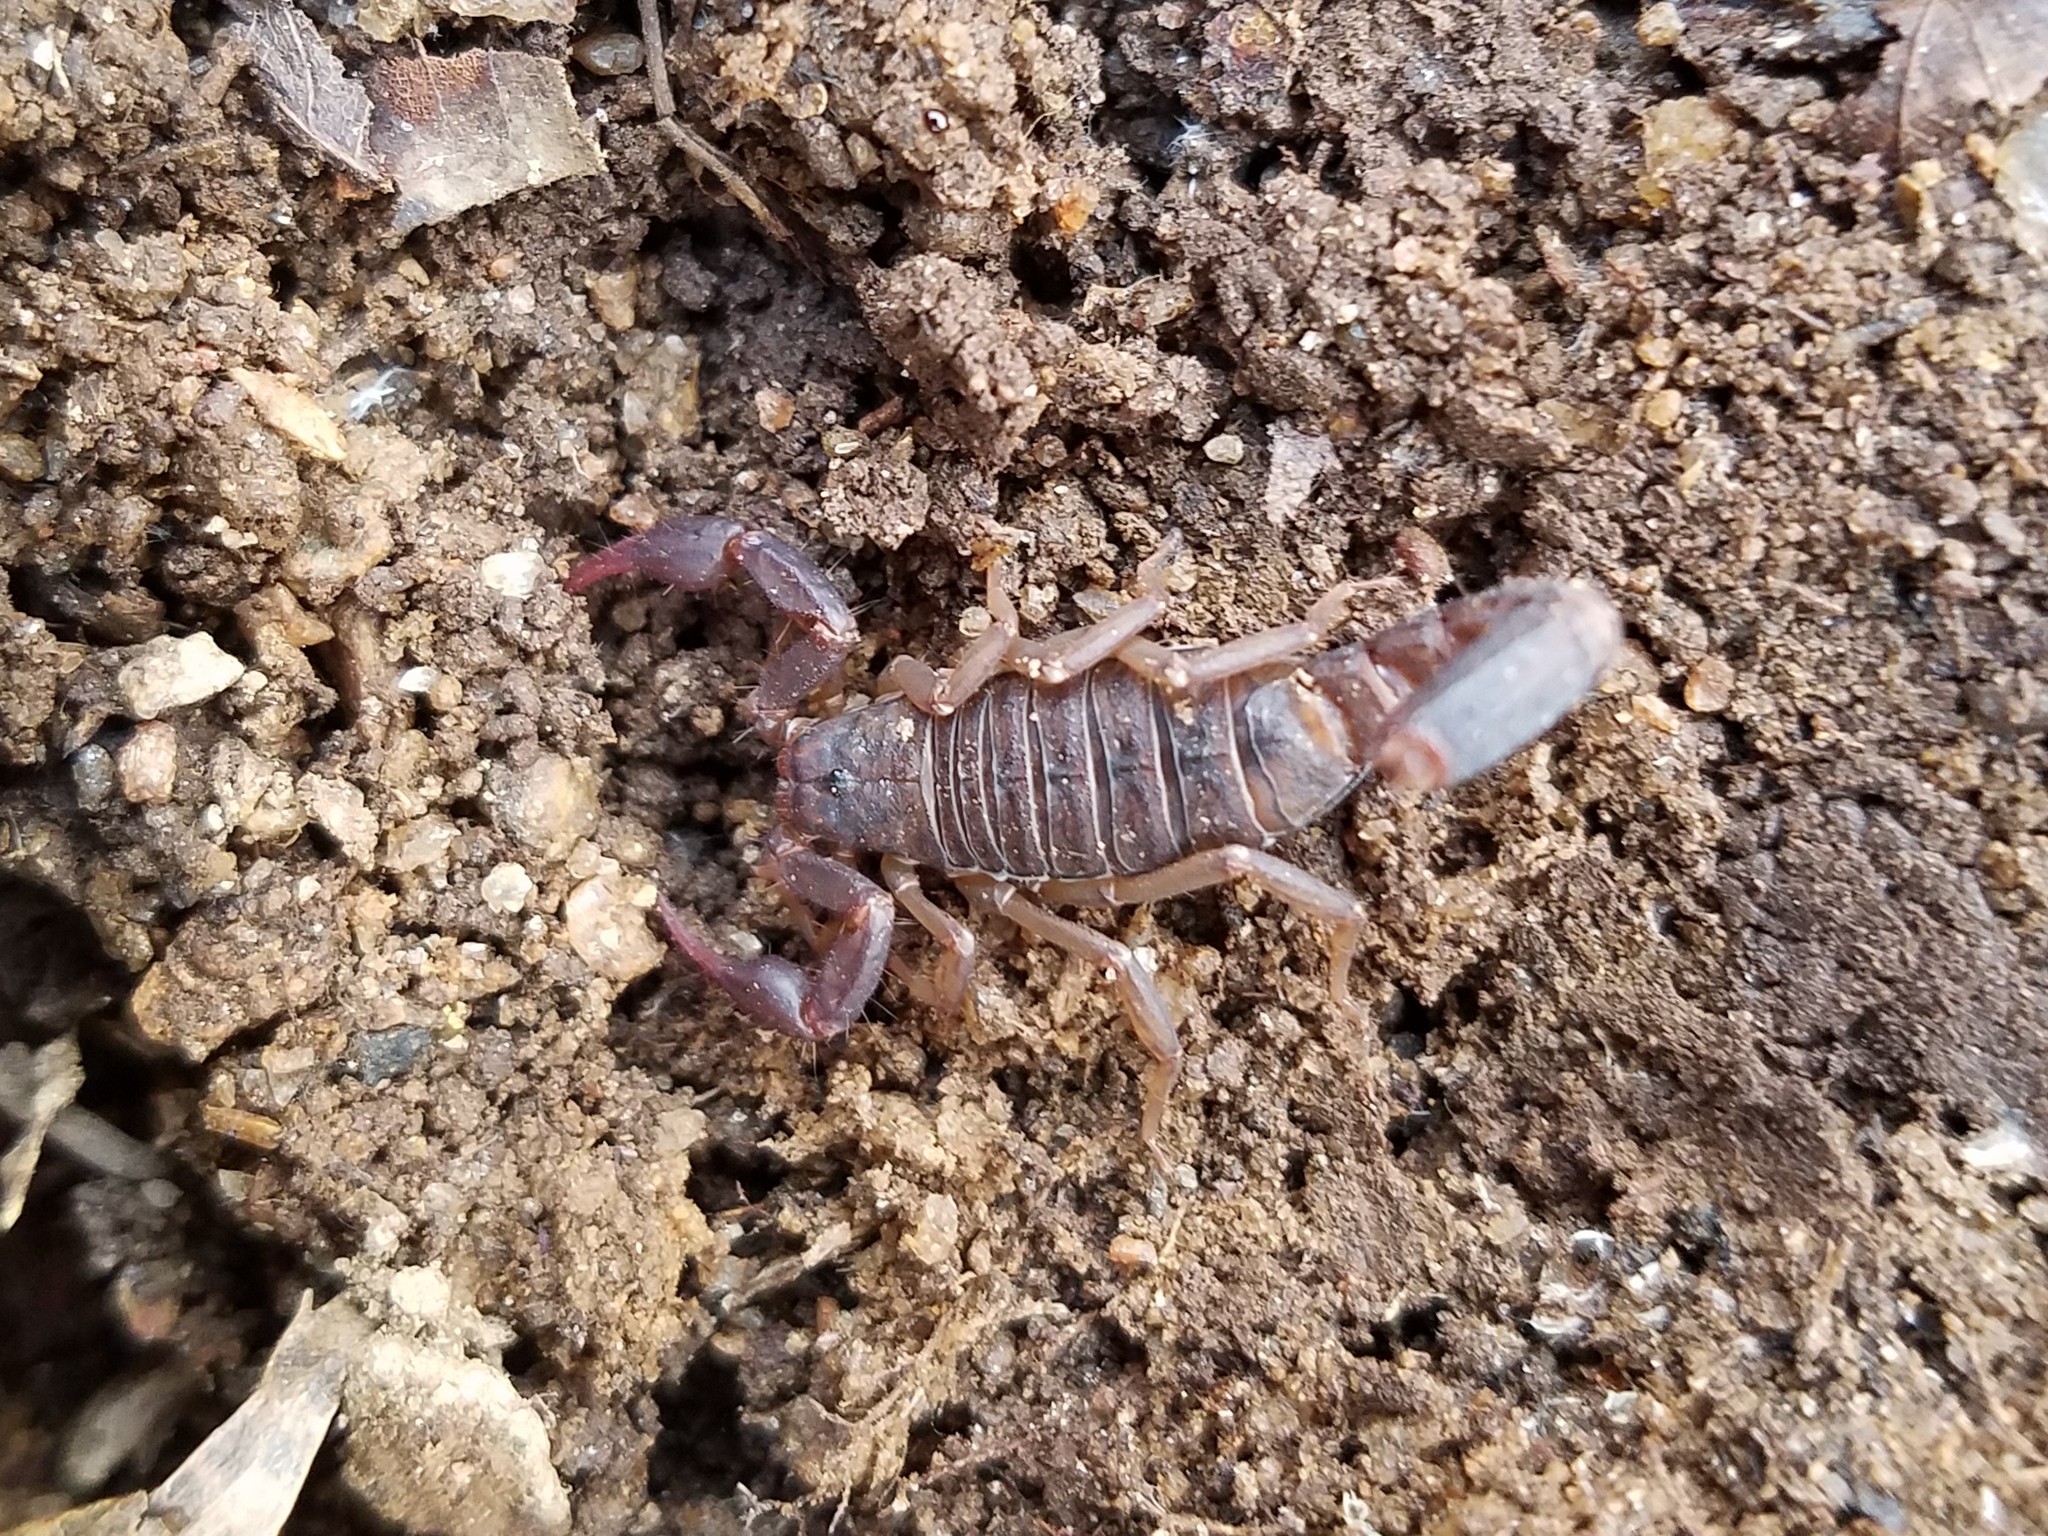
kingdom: Animalia
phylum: Arthropoda
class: Arachnida
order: Scorpiones
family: Vaejovidae
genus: Vaejovis
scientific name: Vaejovis carolinianus
